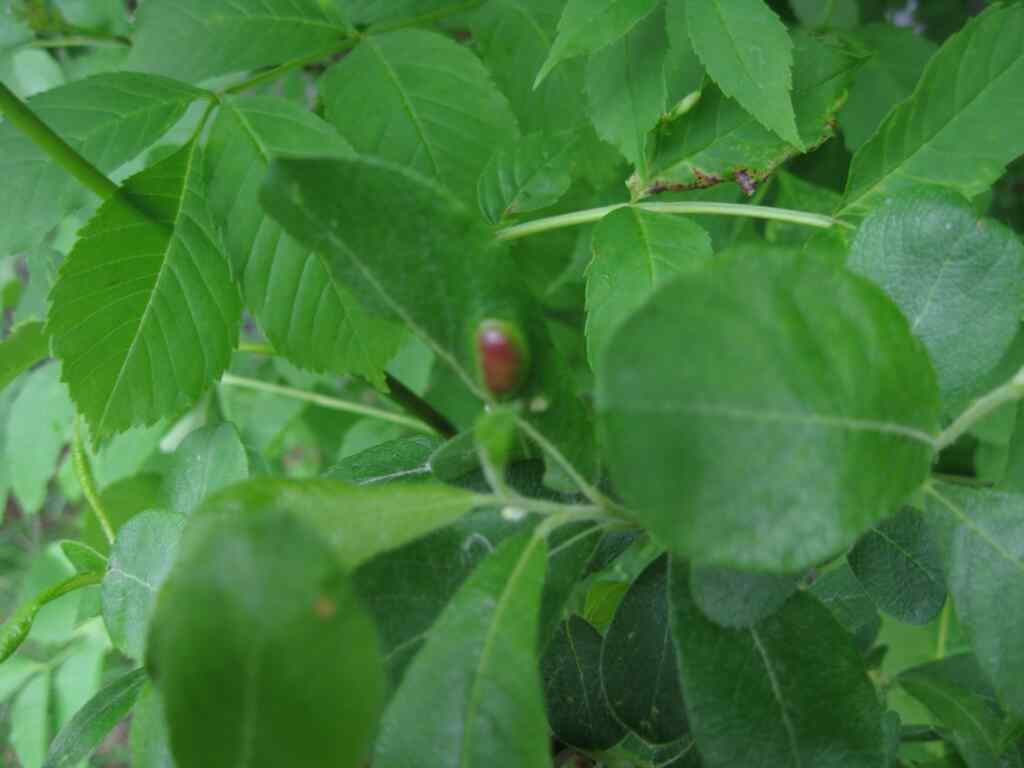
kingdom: Animalia
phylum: Arthropoda
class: Insecta
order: Hymenoptera
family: Tenthredinidae
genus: Pontania
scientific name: Pontania bridgmanii
